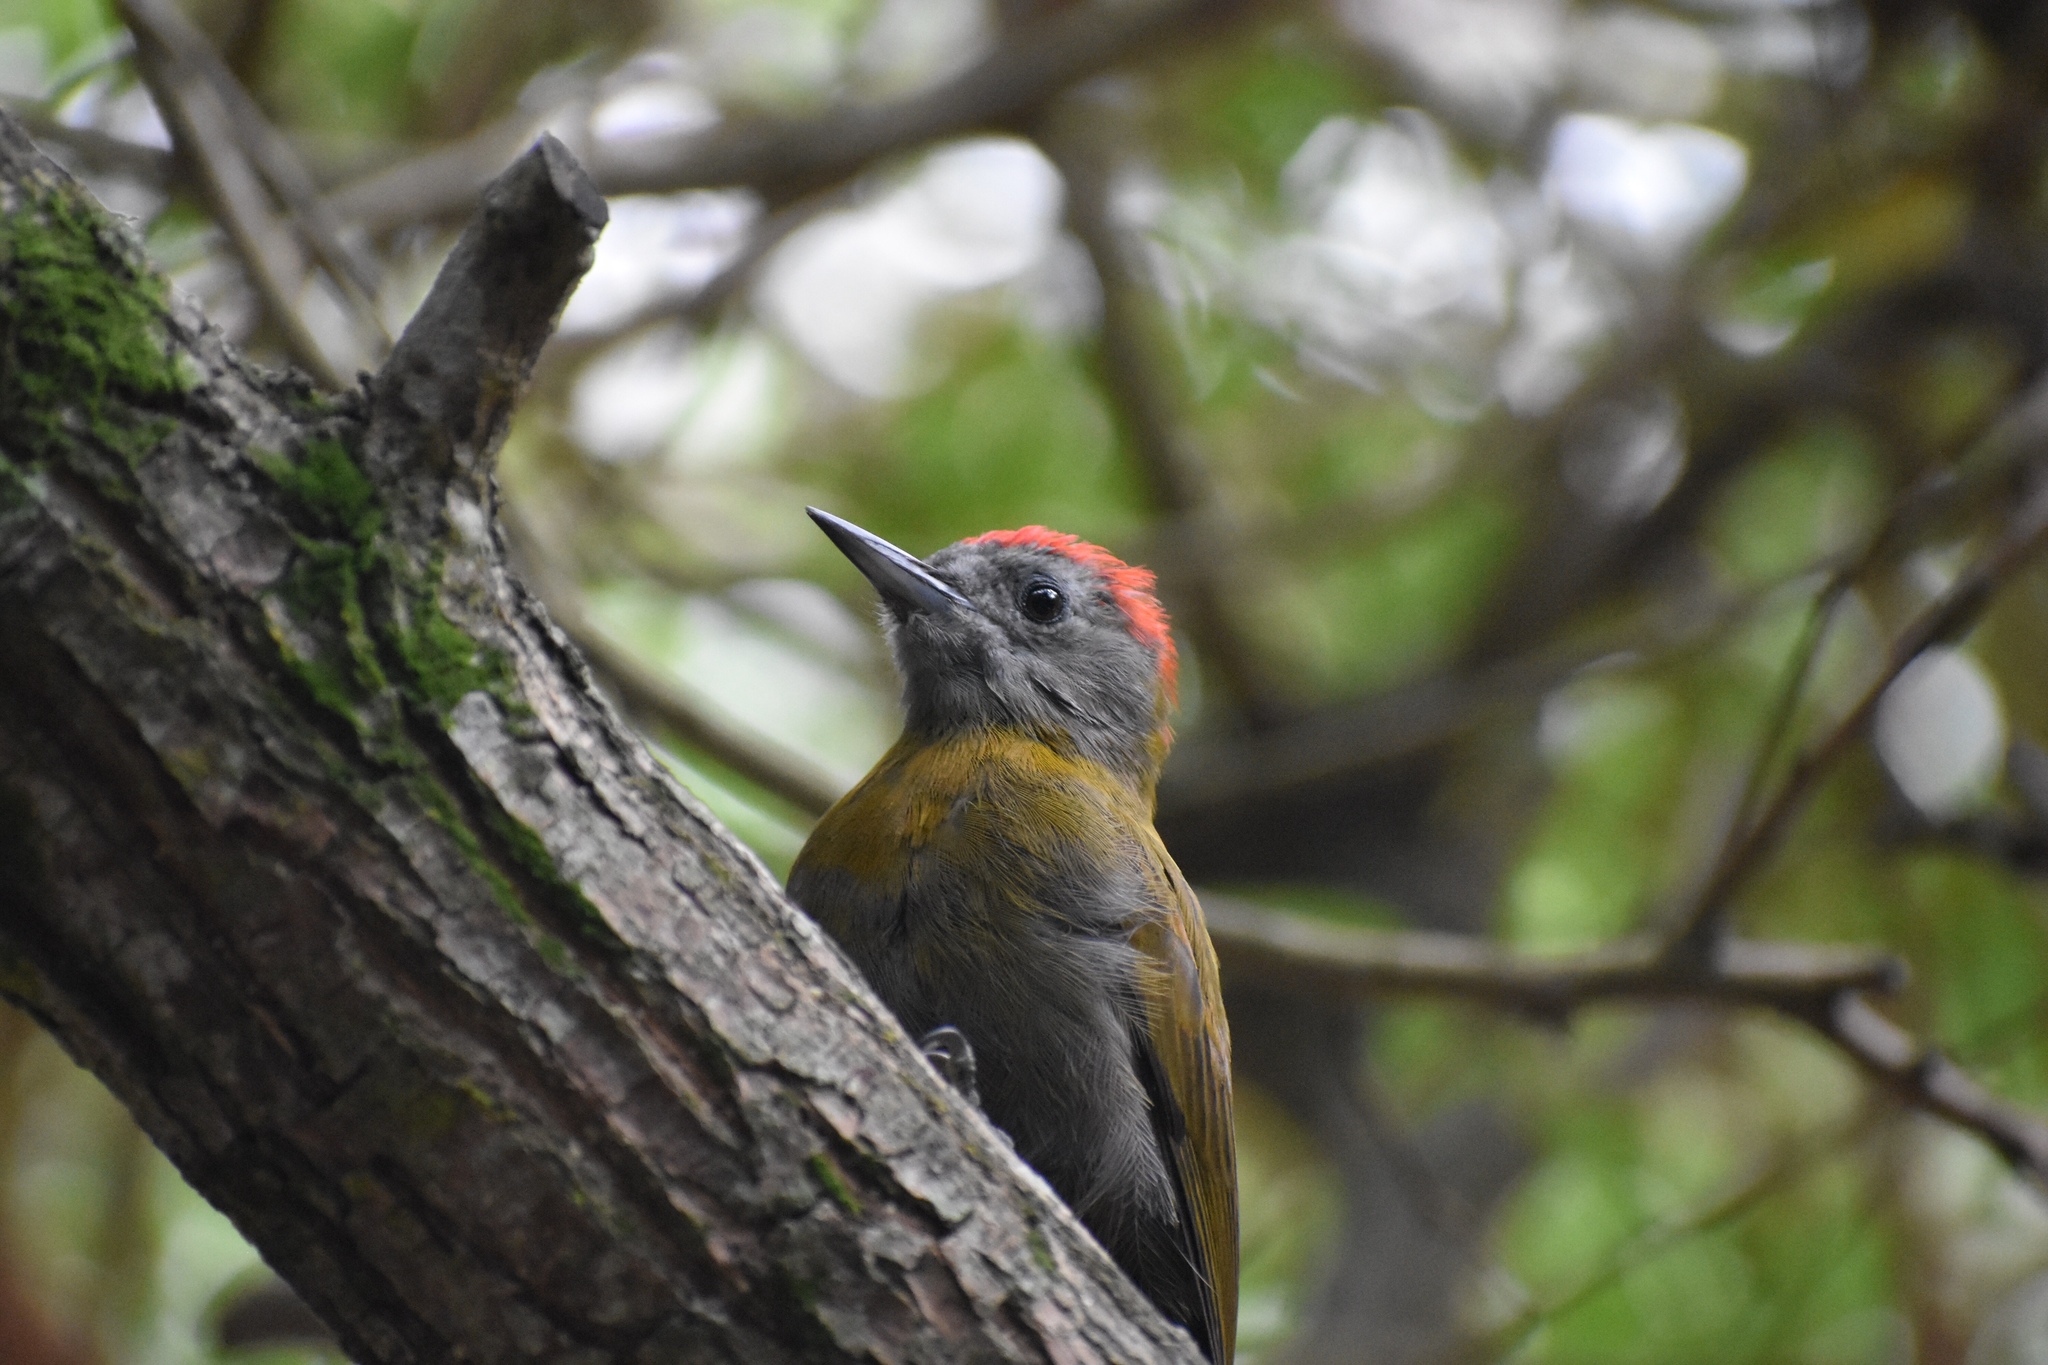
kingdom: Animalia
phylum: Chordata
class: Aves
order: Piciformes
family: Picidae
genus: Dendropicos
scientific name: Dendropicos griseocephalus
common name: Olive woodpecker
